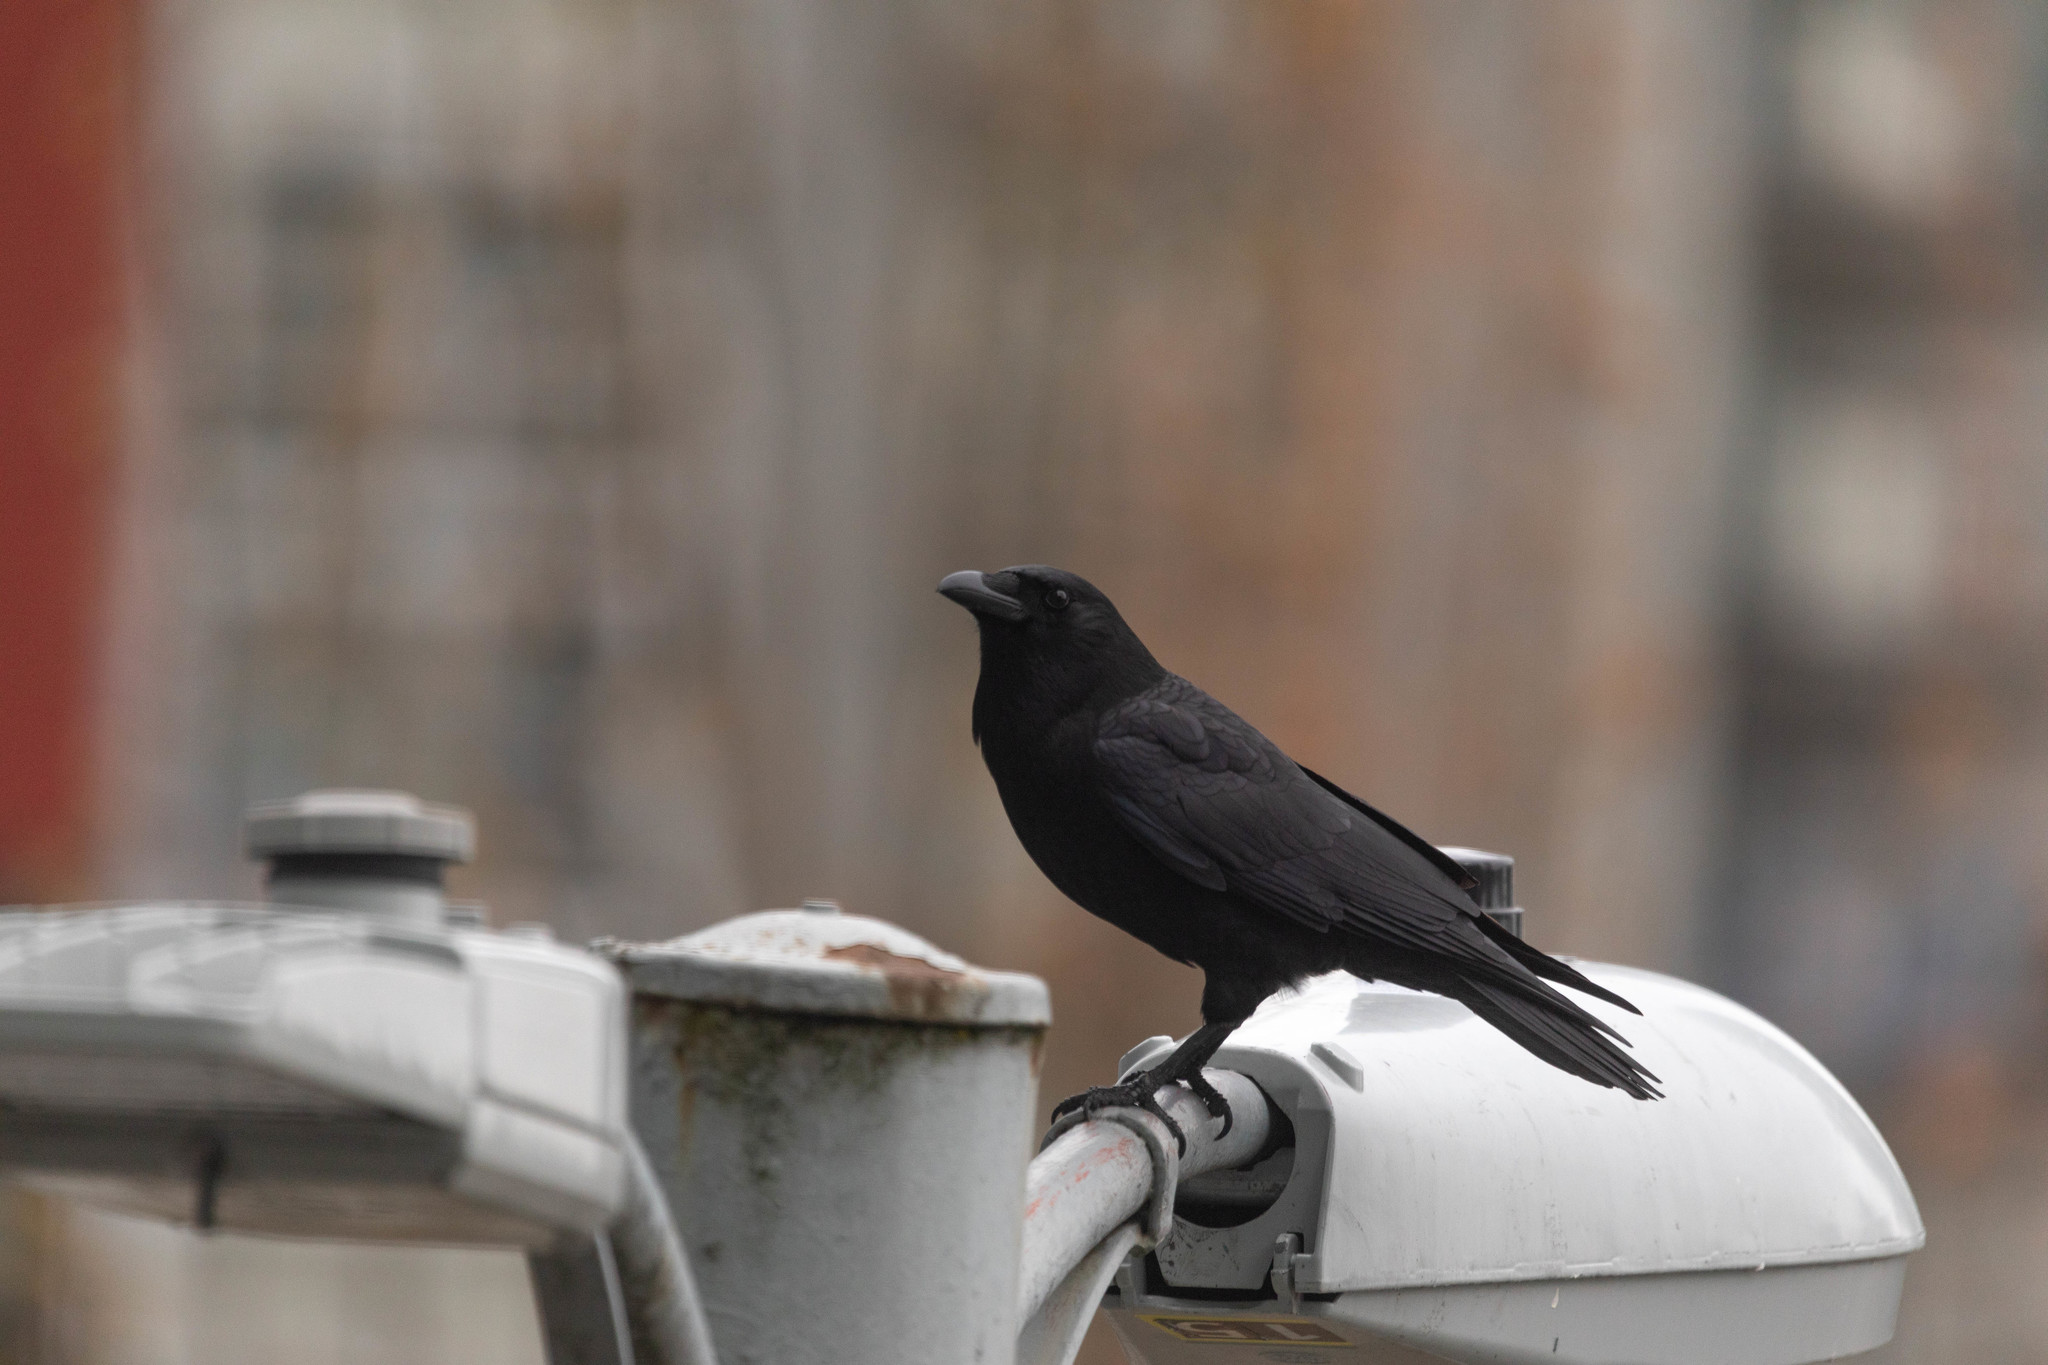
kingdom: Animalia
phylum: Chordata
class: Aves
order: Passeriformes
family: Corvidae
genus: Corvus
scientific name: Corvus brachyrhynchos
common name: American crow
